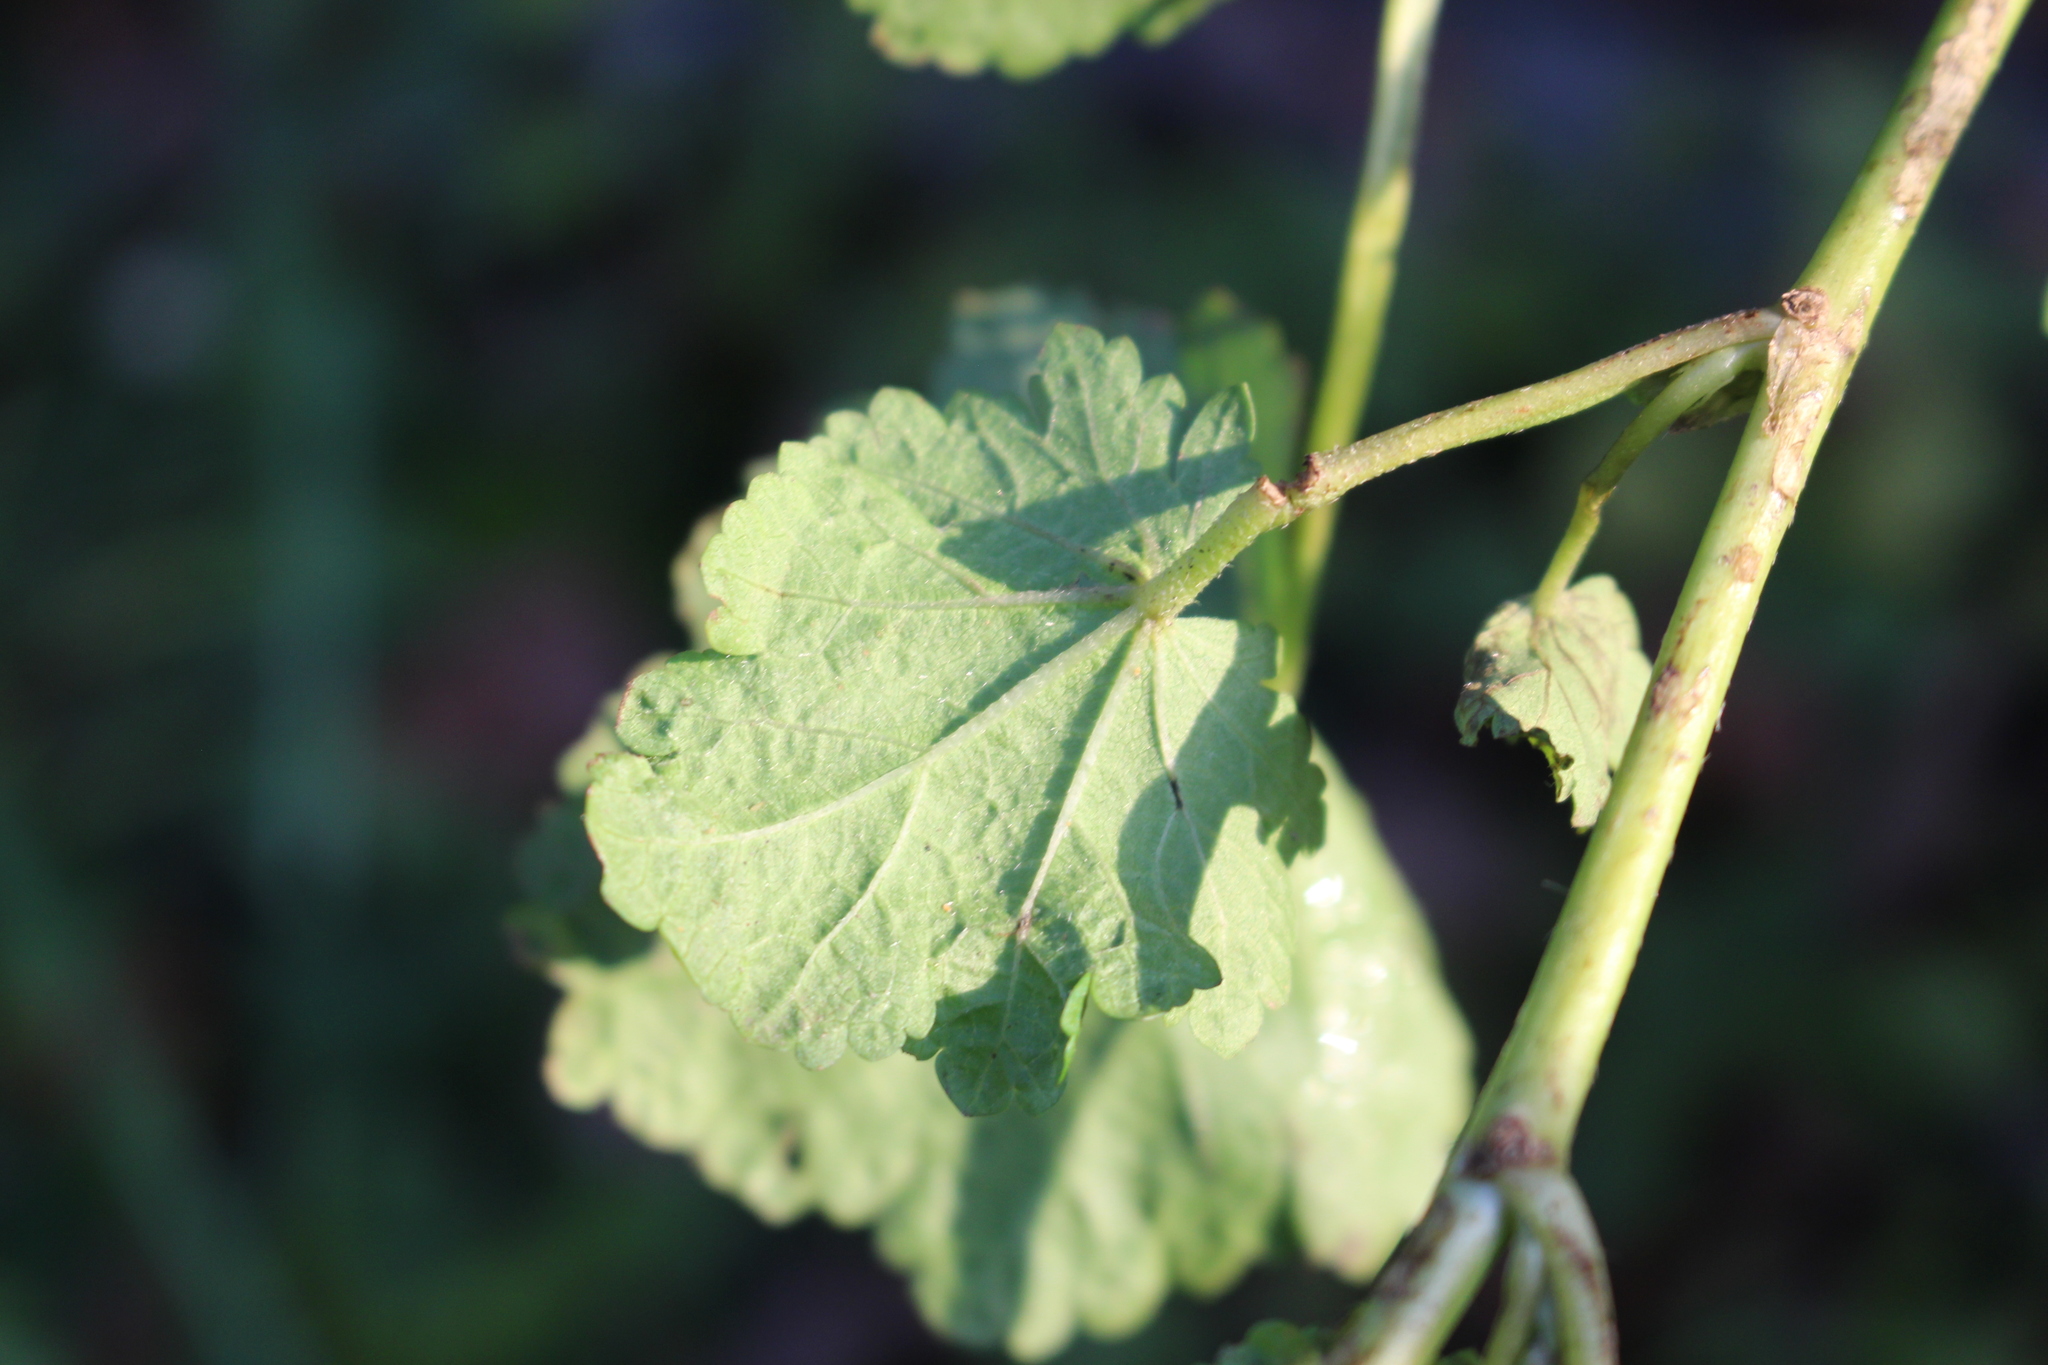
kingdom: Plantae
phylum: Tracheophyta
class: Magnoliopsida
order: Malvales
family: Malvaceae
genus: Modiola
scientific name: Modiola caroliniana
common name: Carolina bristlemallow
